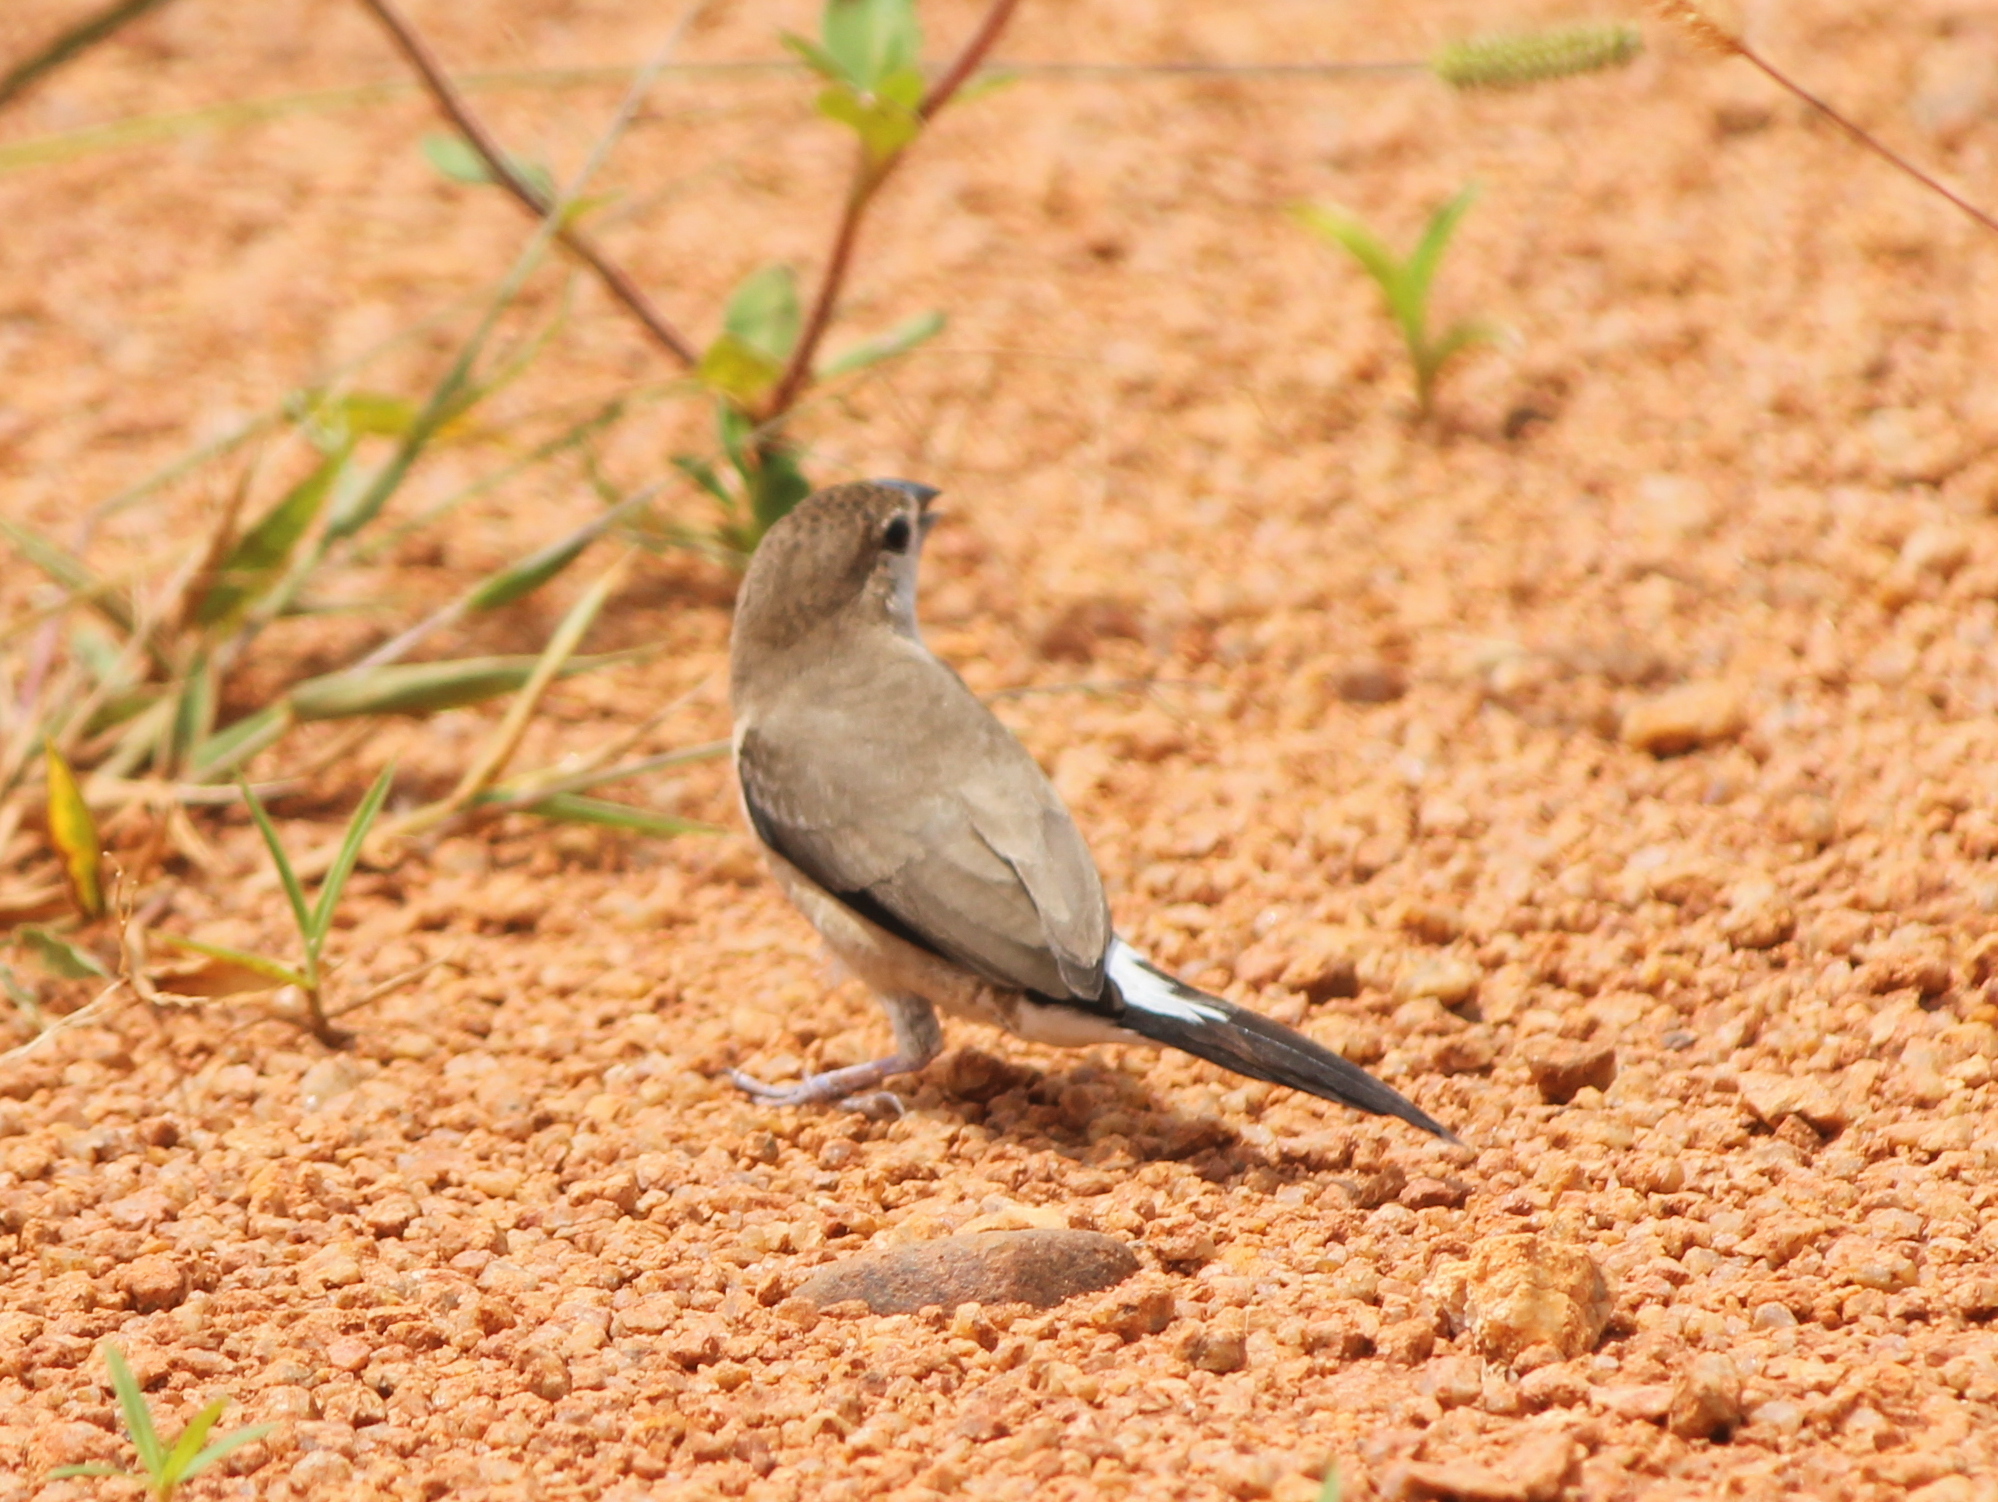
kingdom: Animalia
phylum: Chordata
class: Aves
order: Passeriformes
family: Estrildidae
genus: Euodice
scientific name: Euodice malabarica
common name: Indian silverbill
